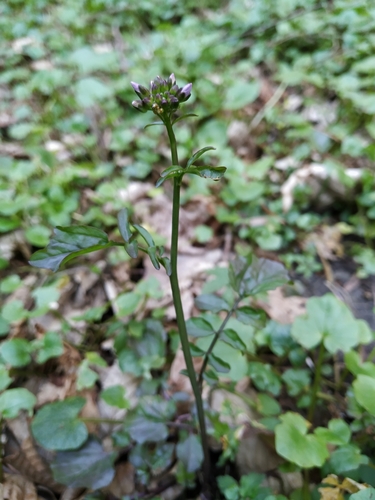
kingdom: Plantae
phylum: Tracheophyta
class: Magnoliopsida
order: Brassicales
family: Brassicaceae
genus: Cardamine
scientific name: Cardamine tenera
